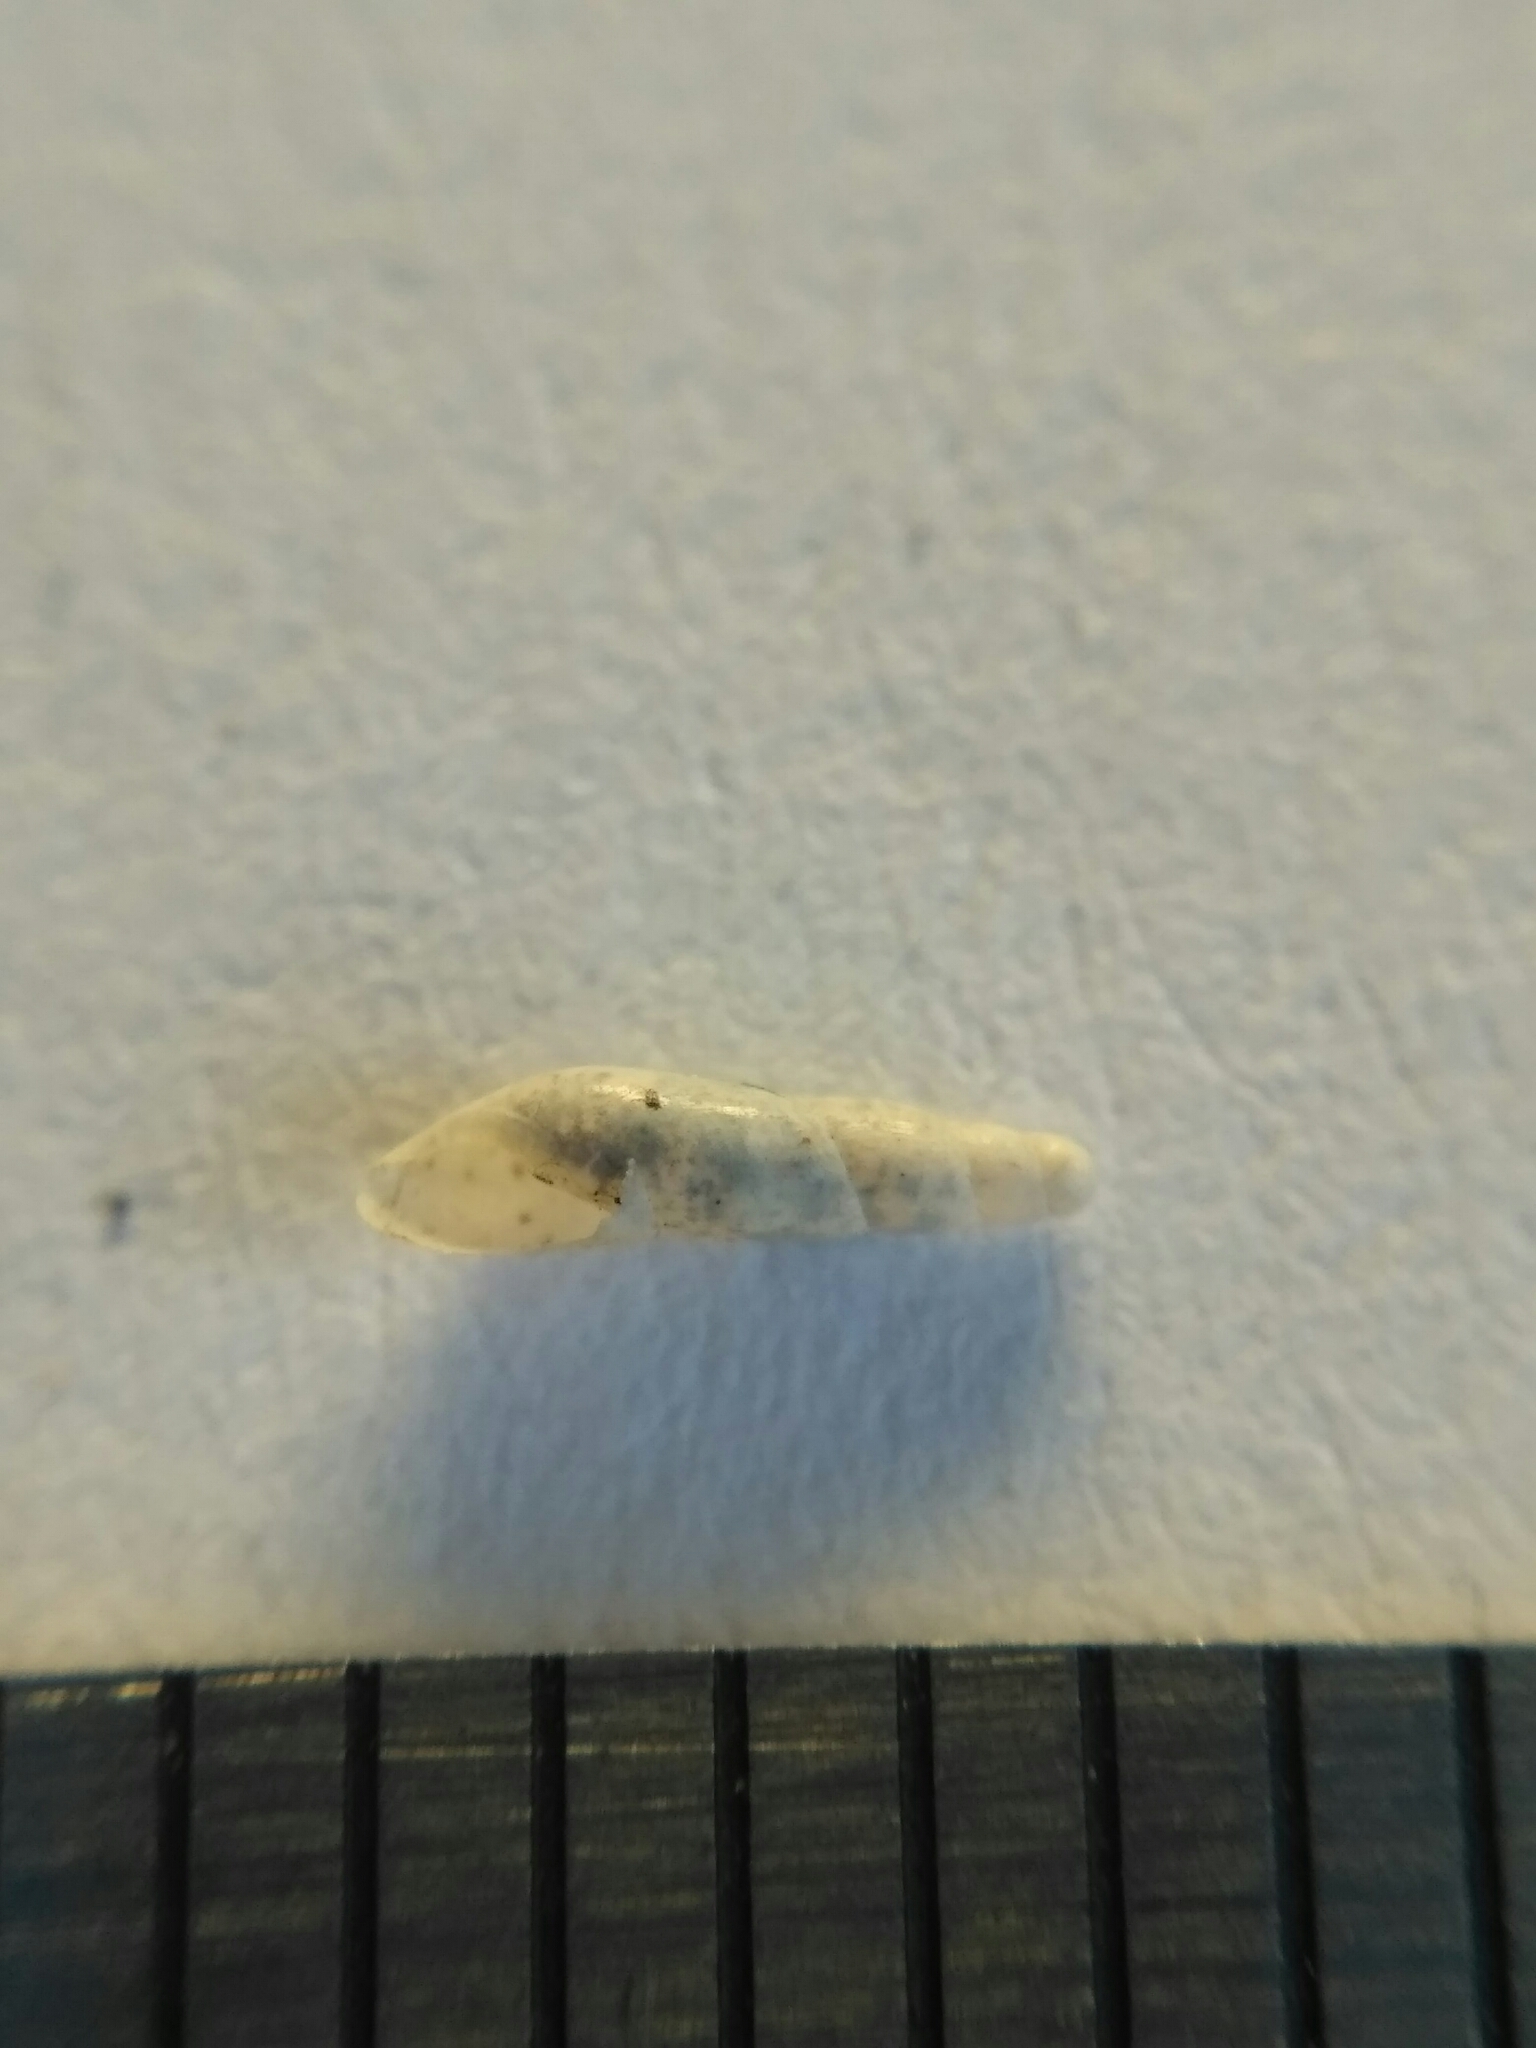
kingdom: Animalia
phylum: Mollusca
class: Gastropoda
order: Stylommatophora
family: Ferussaciidae
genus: Cecilioides
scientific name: Cecilioides acicula
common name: Blind awlsnail
